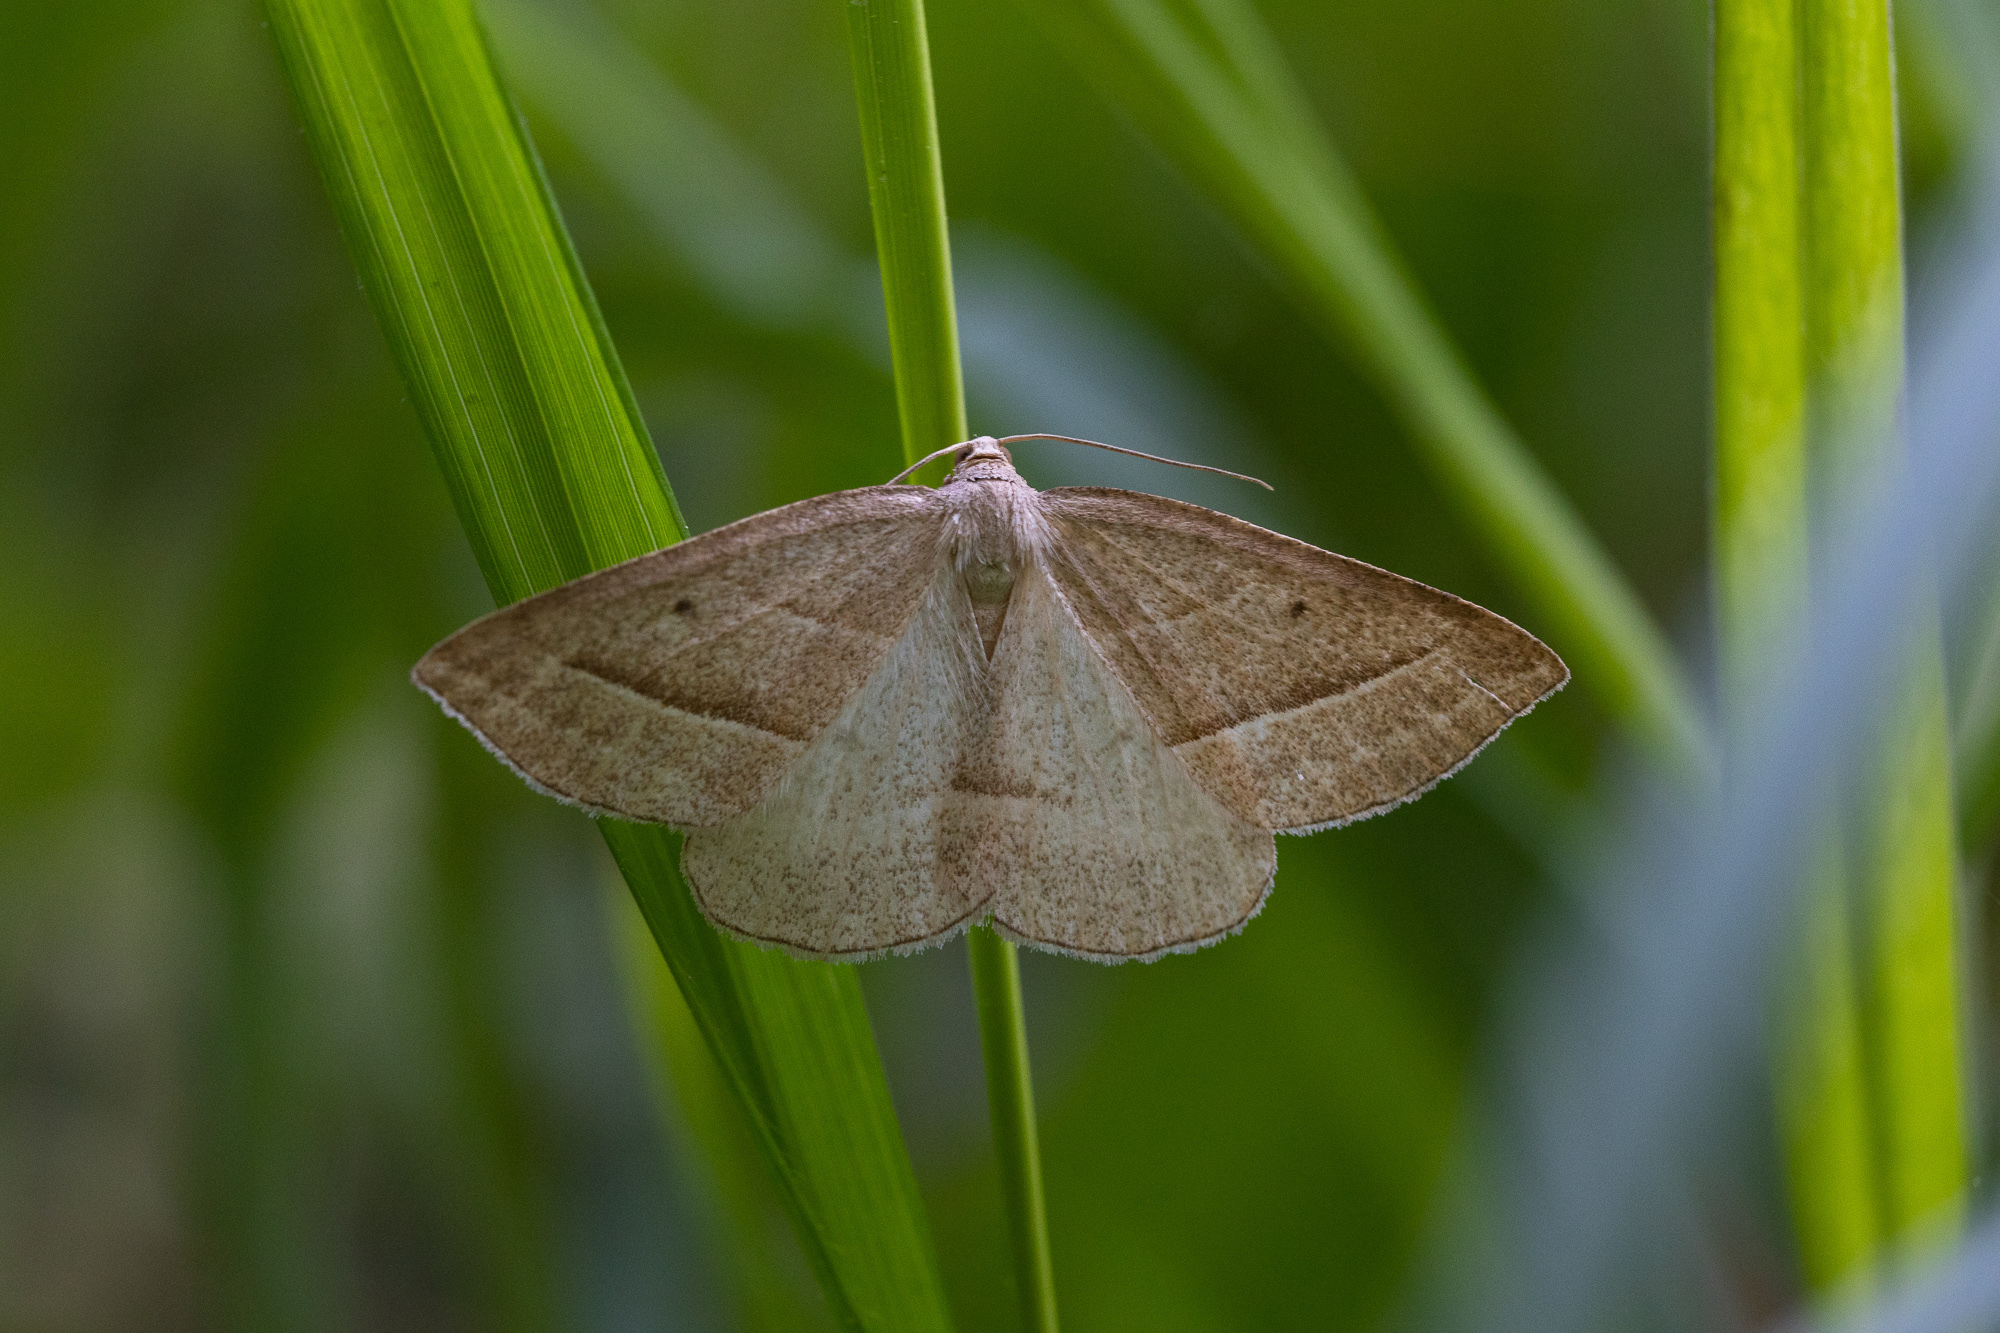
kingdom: Animalia
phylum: Arthropoda
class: Insecta
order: Lepidoptera
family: Pterophoridae
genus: Pterophorus
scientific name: Pterophorus Petrophora chlorosata
